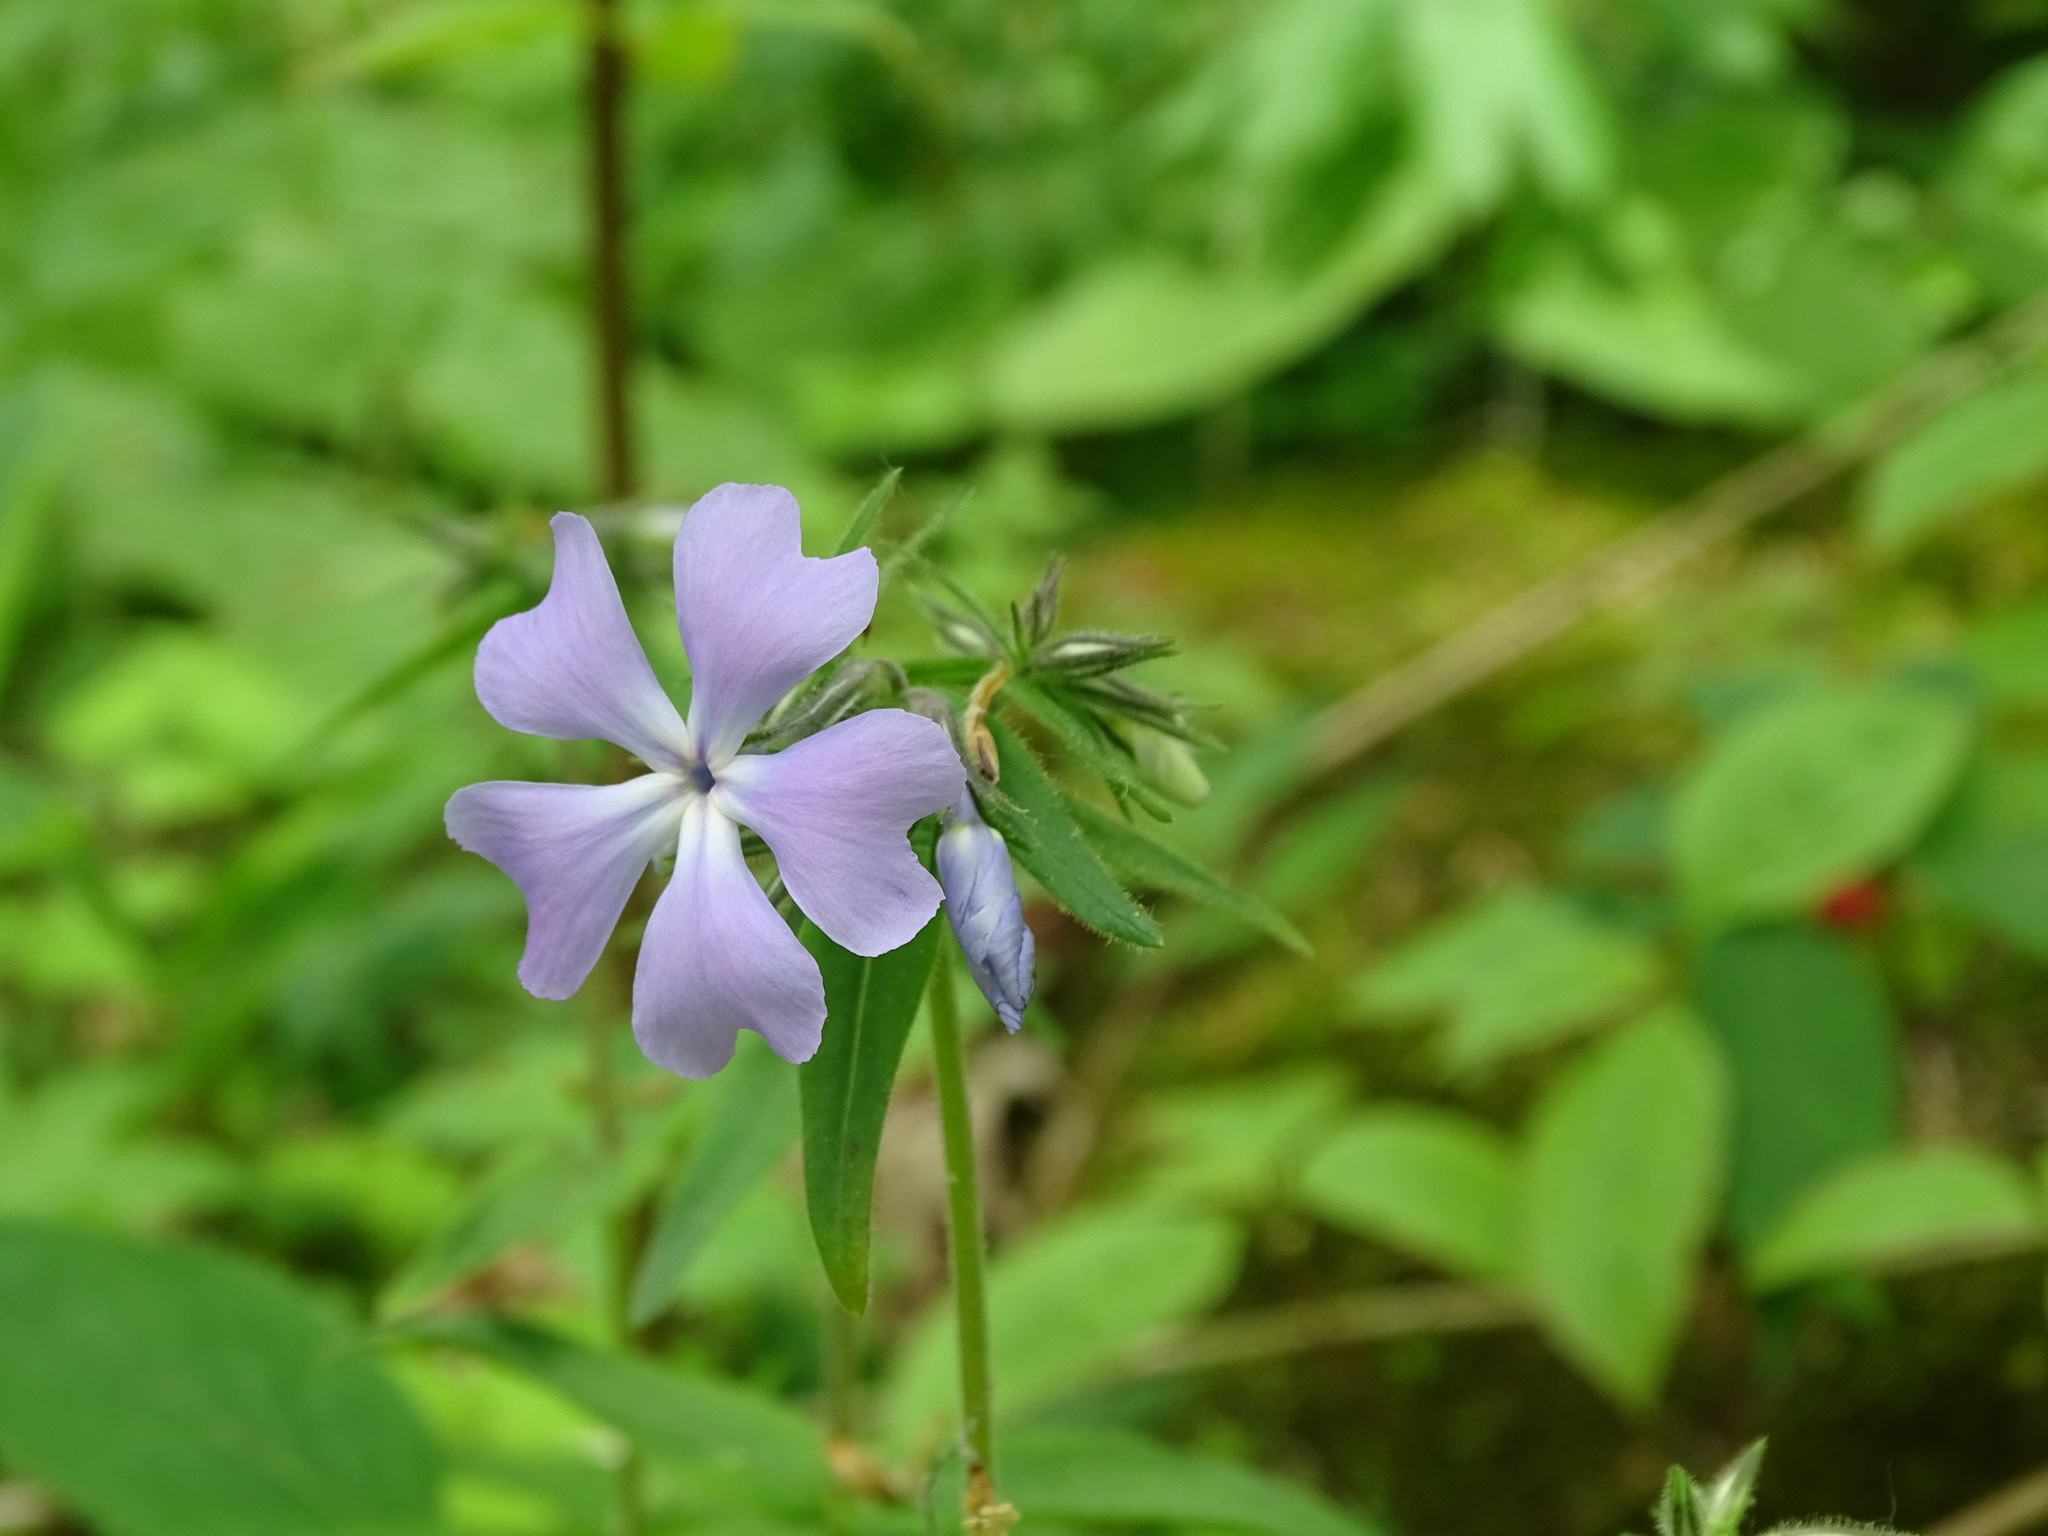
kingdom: Plantae
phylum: Tracheophyta
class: Magnoliopsida
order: Ericales
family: Polemoniaceae
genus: Phlox
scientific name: Phlox divaricata
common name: Blue phlox
